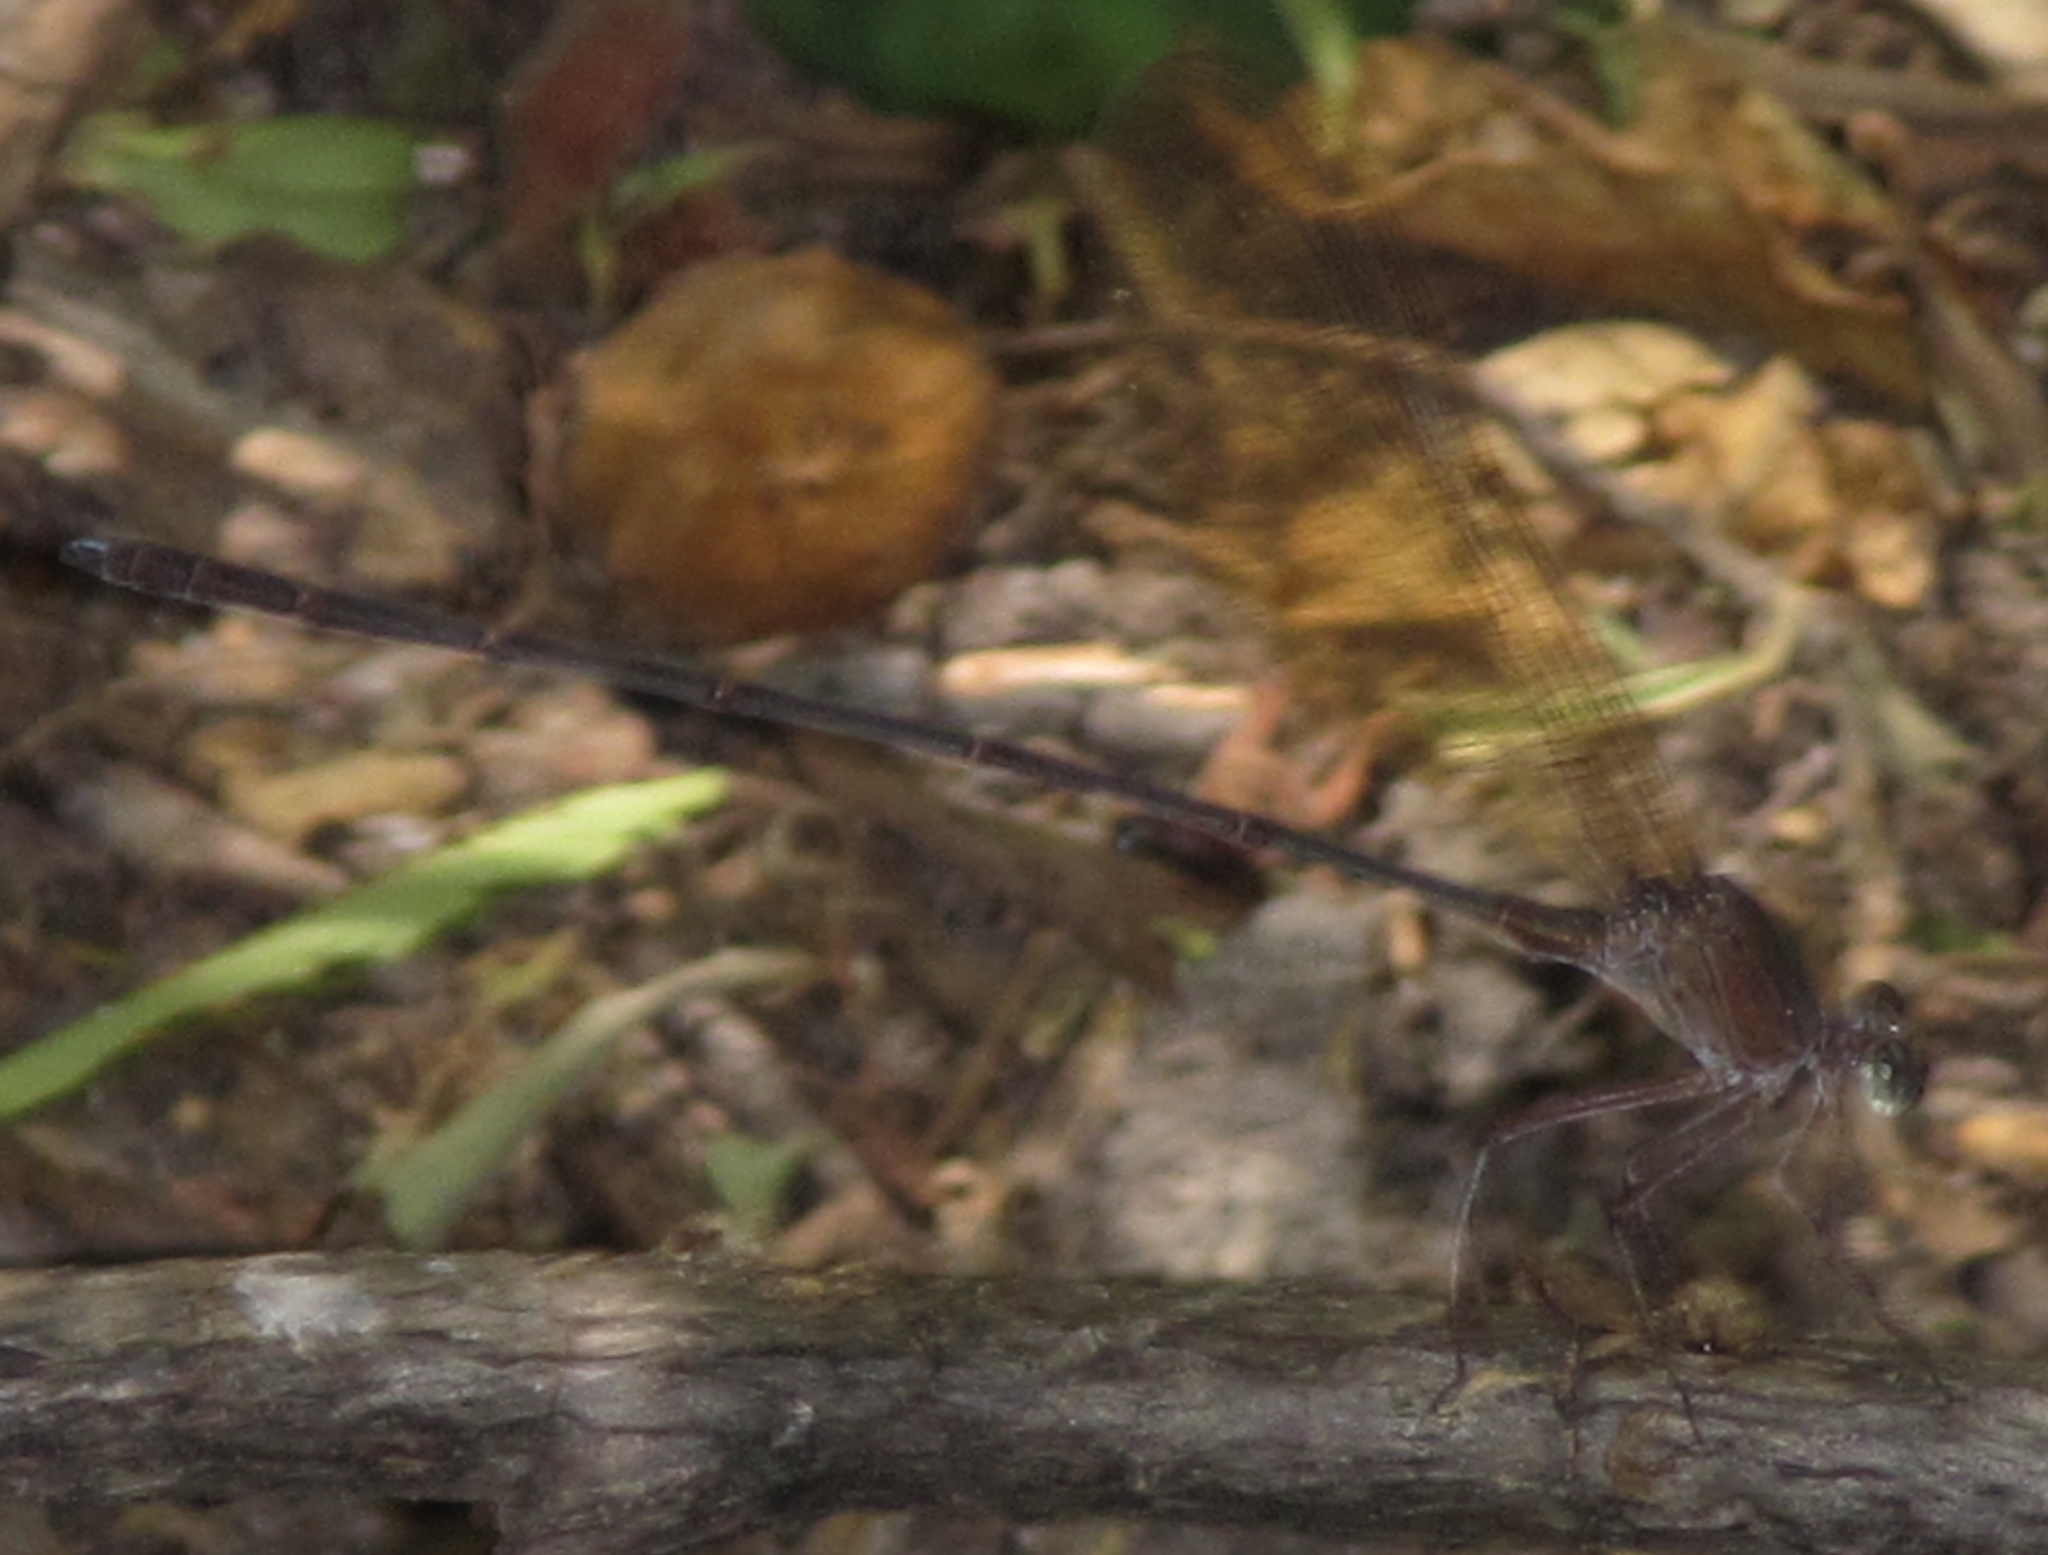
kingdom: Animalia
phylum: Arthropoda
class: Insecta
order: Odonata
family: Calopterygidae
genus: Phaon
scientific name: Phaon iridipennis
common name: Glistening demoiselle
